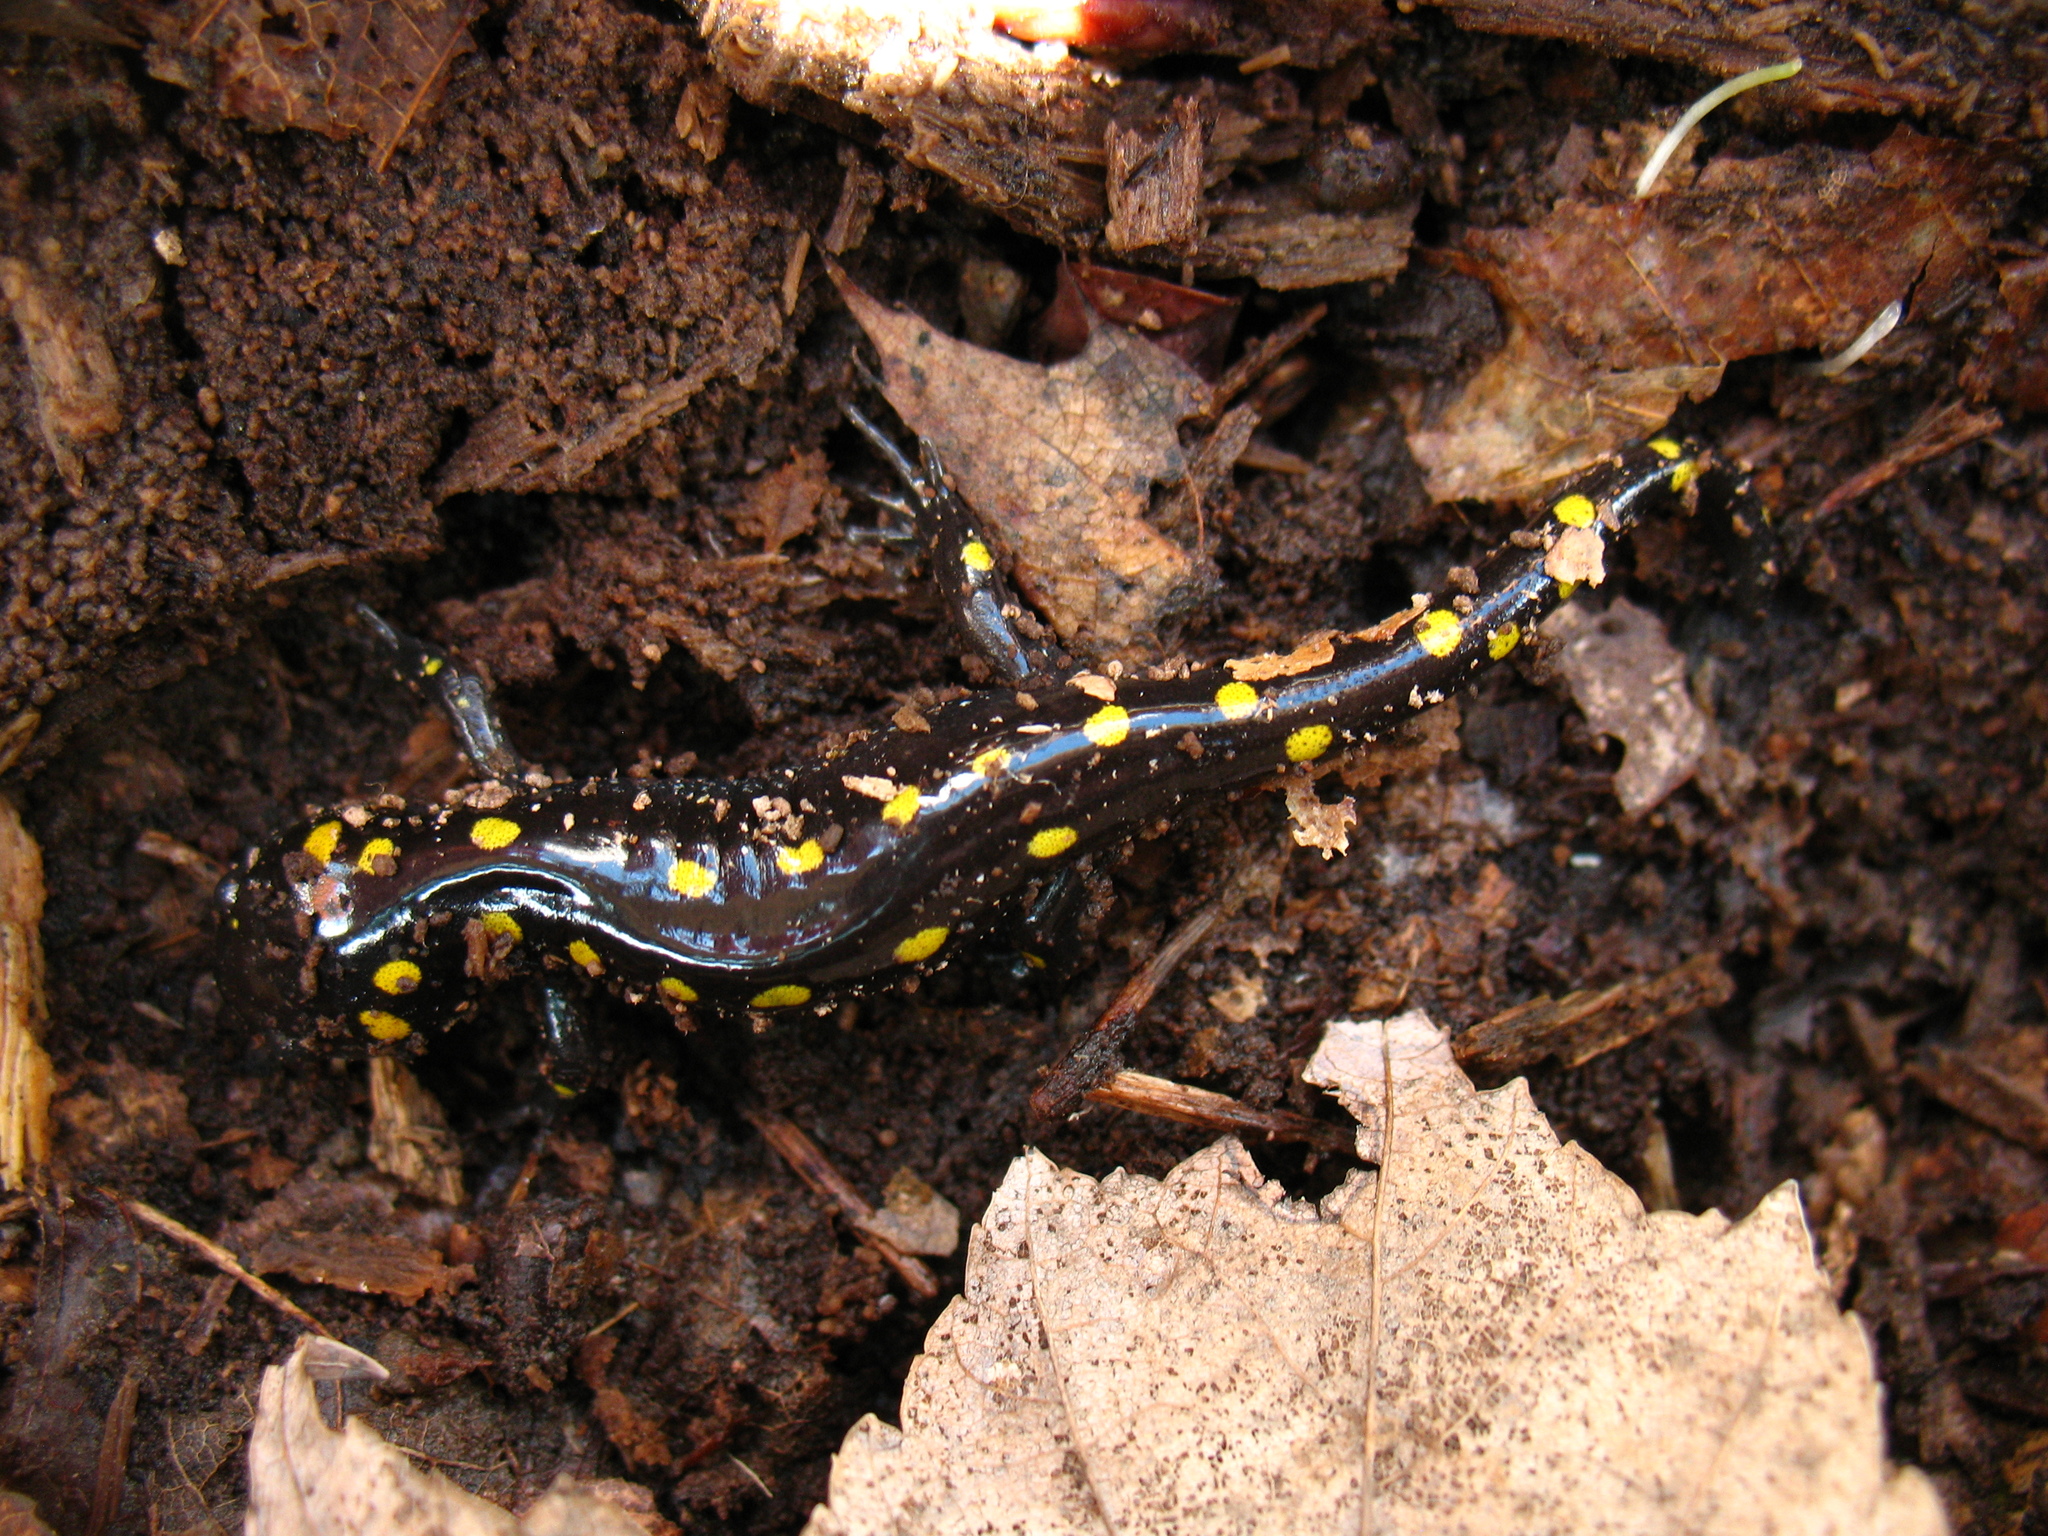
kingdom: Animalia
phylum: Chordata
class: Amphibia
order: Caudata
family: Ambystomatidae
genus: Ambystoma
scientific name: Ambystoma maculatum
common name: Spotted salamander
